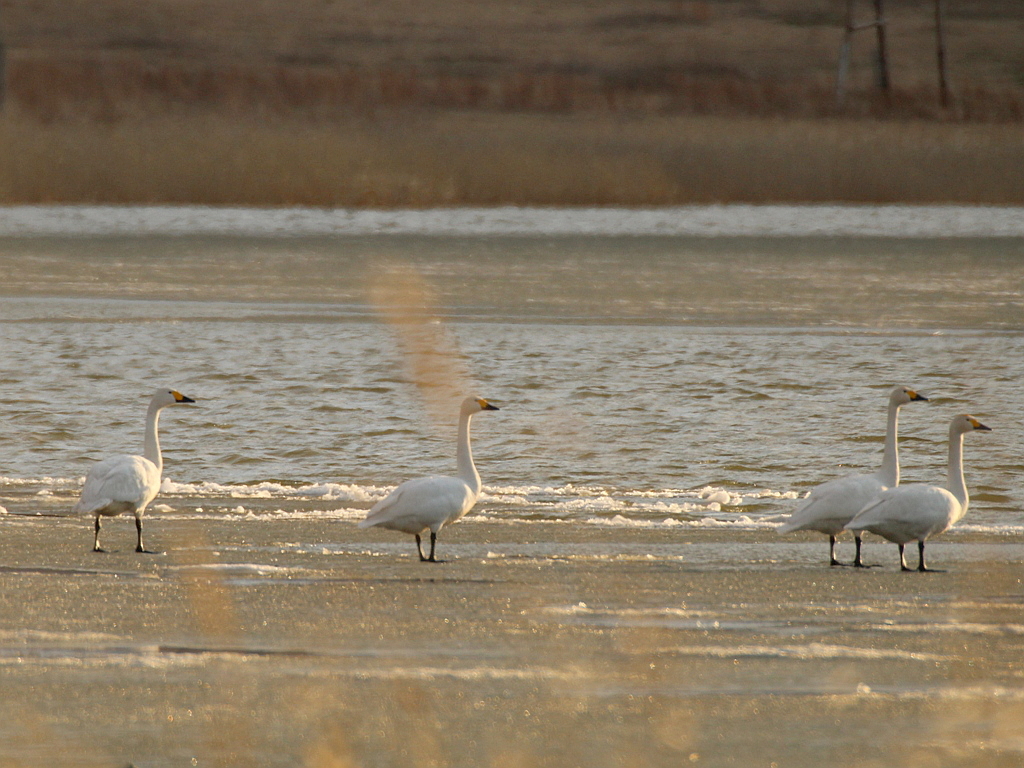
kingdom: Animalia
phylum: Chordata
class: Aves
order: Anseriformes
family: Anatidae
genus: Cygnus
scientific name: Cygnus columbianus
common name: Tundra swan
